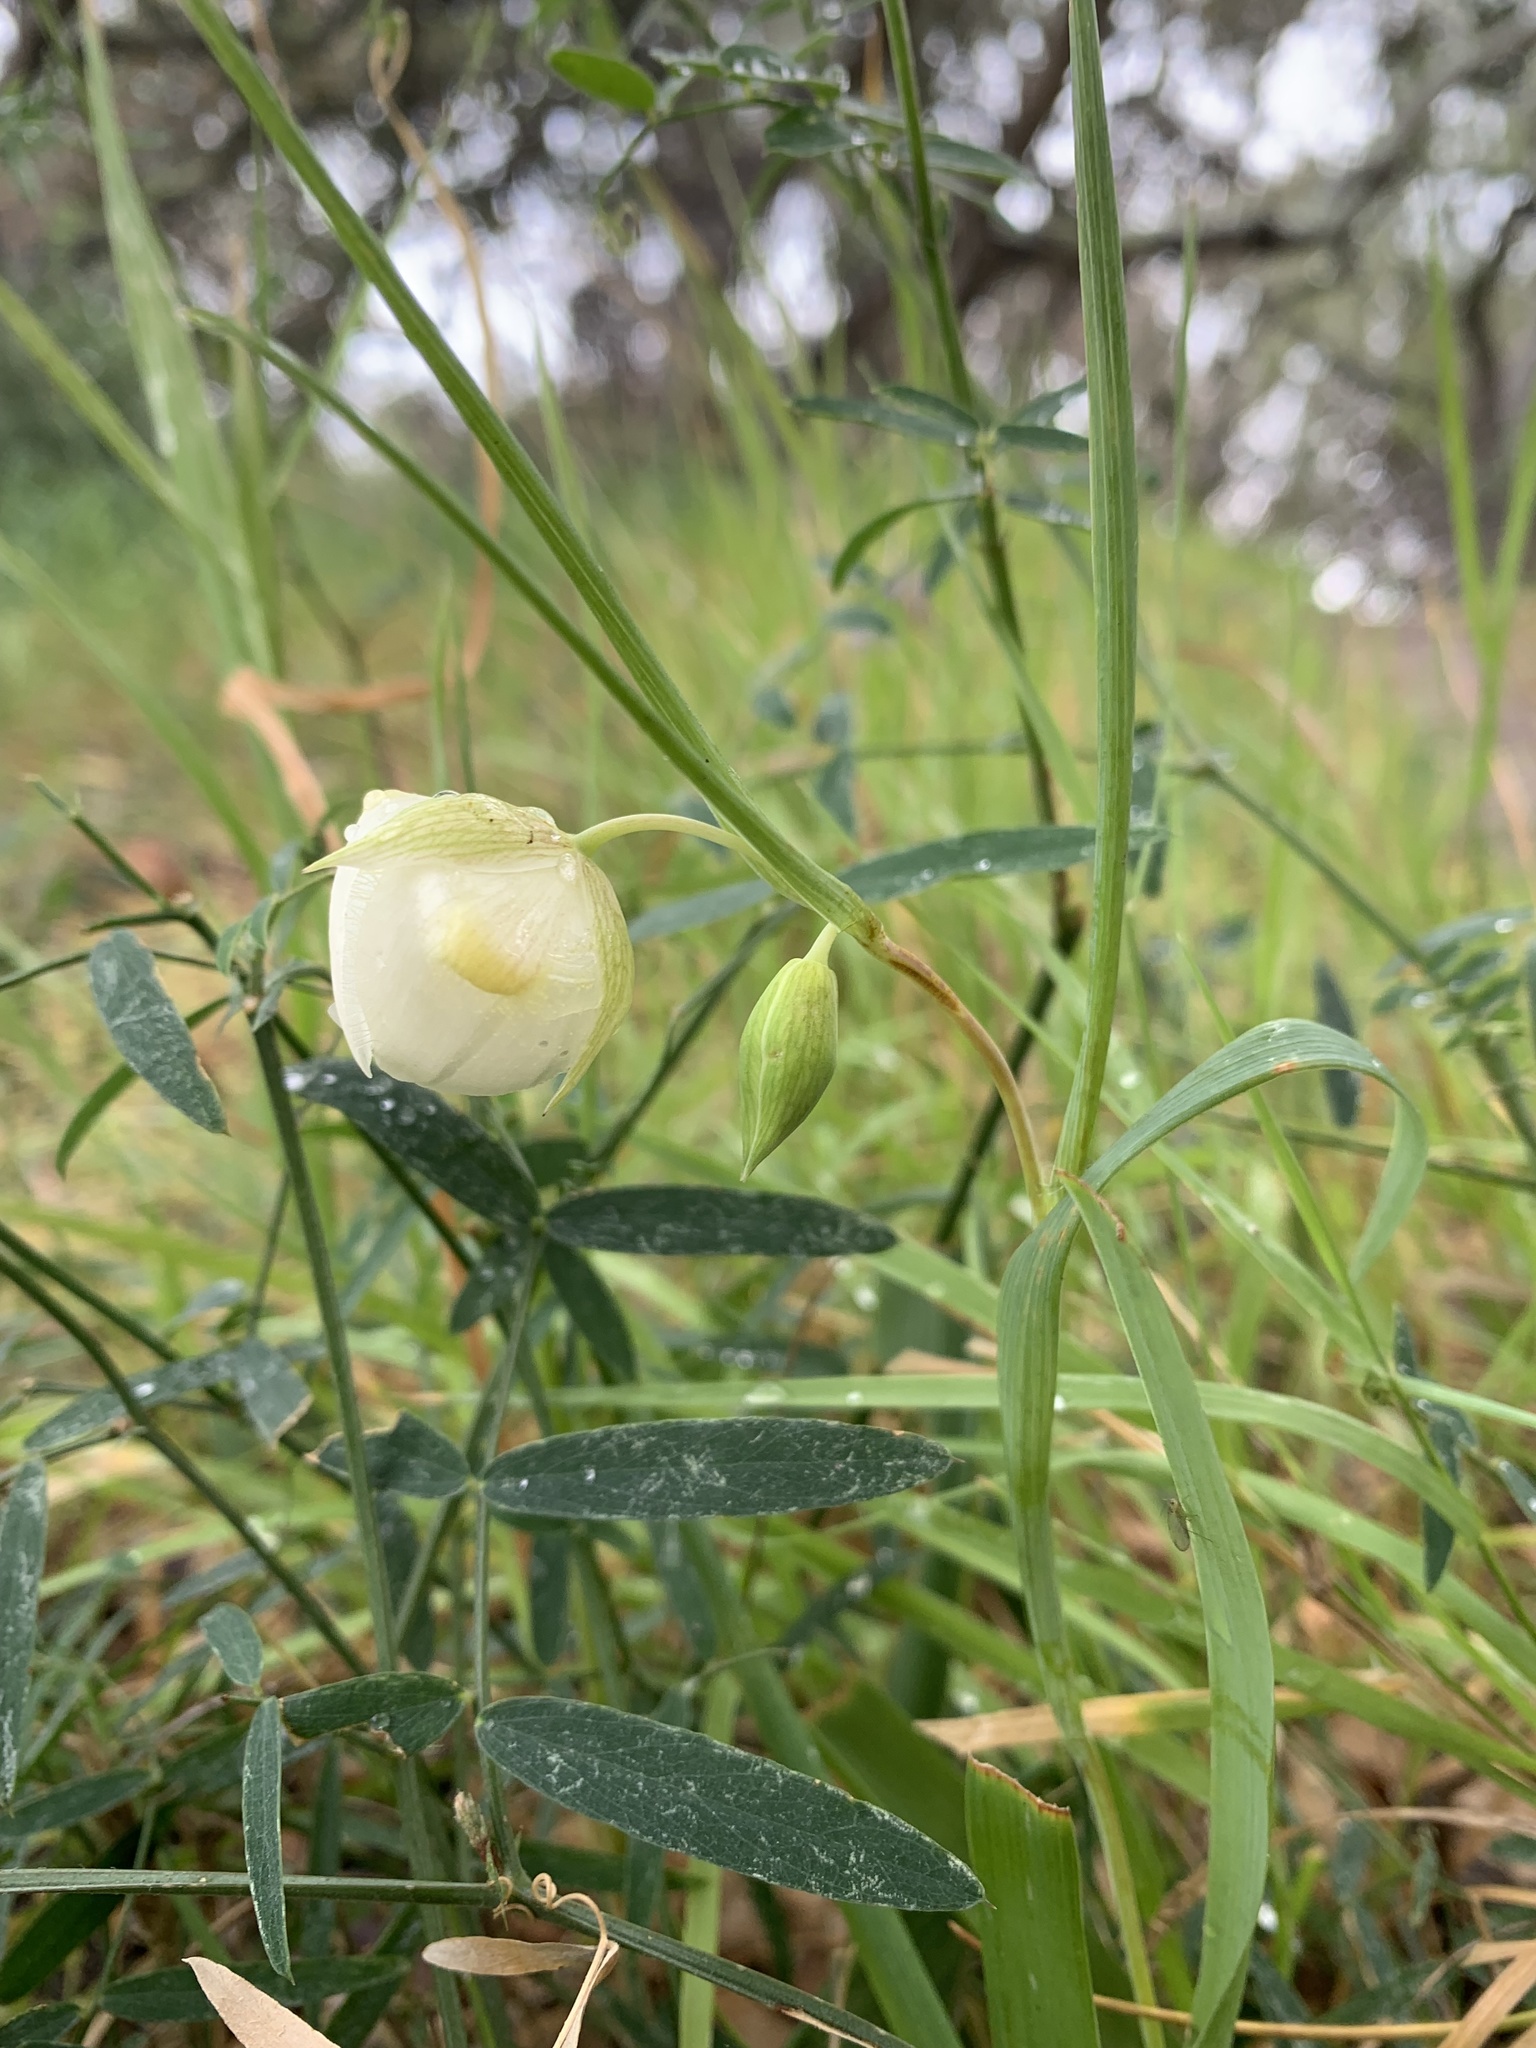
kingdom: Plantae
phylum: Tracheophyta
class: Liliopsida
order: Liliales
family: Liliaceae
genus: Calochortus
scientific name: Calochortus albus
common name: Fairy-lantern
